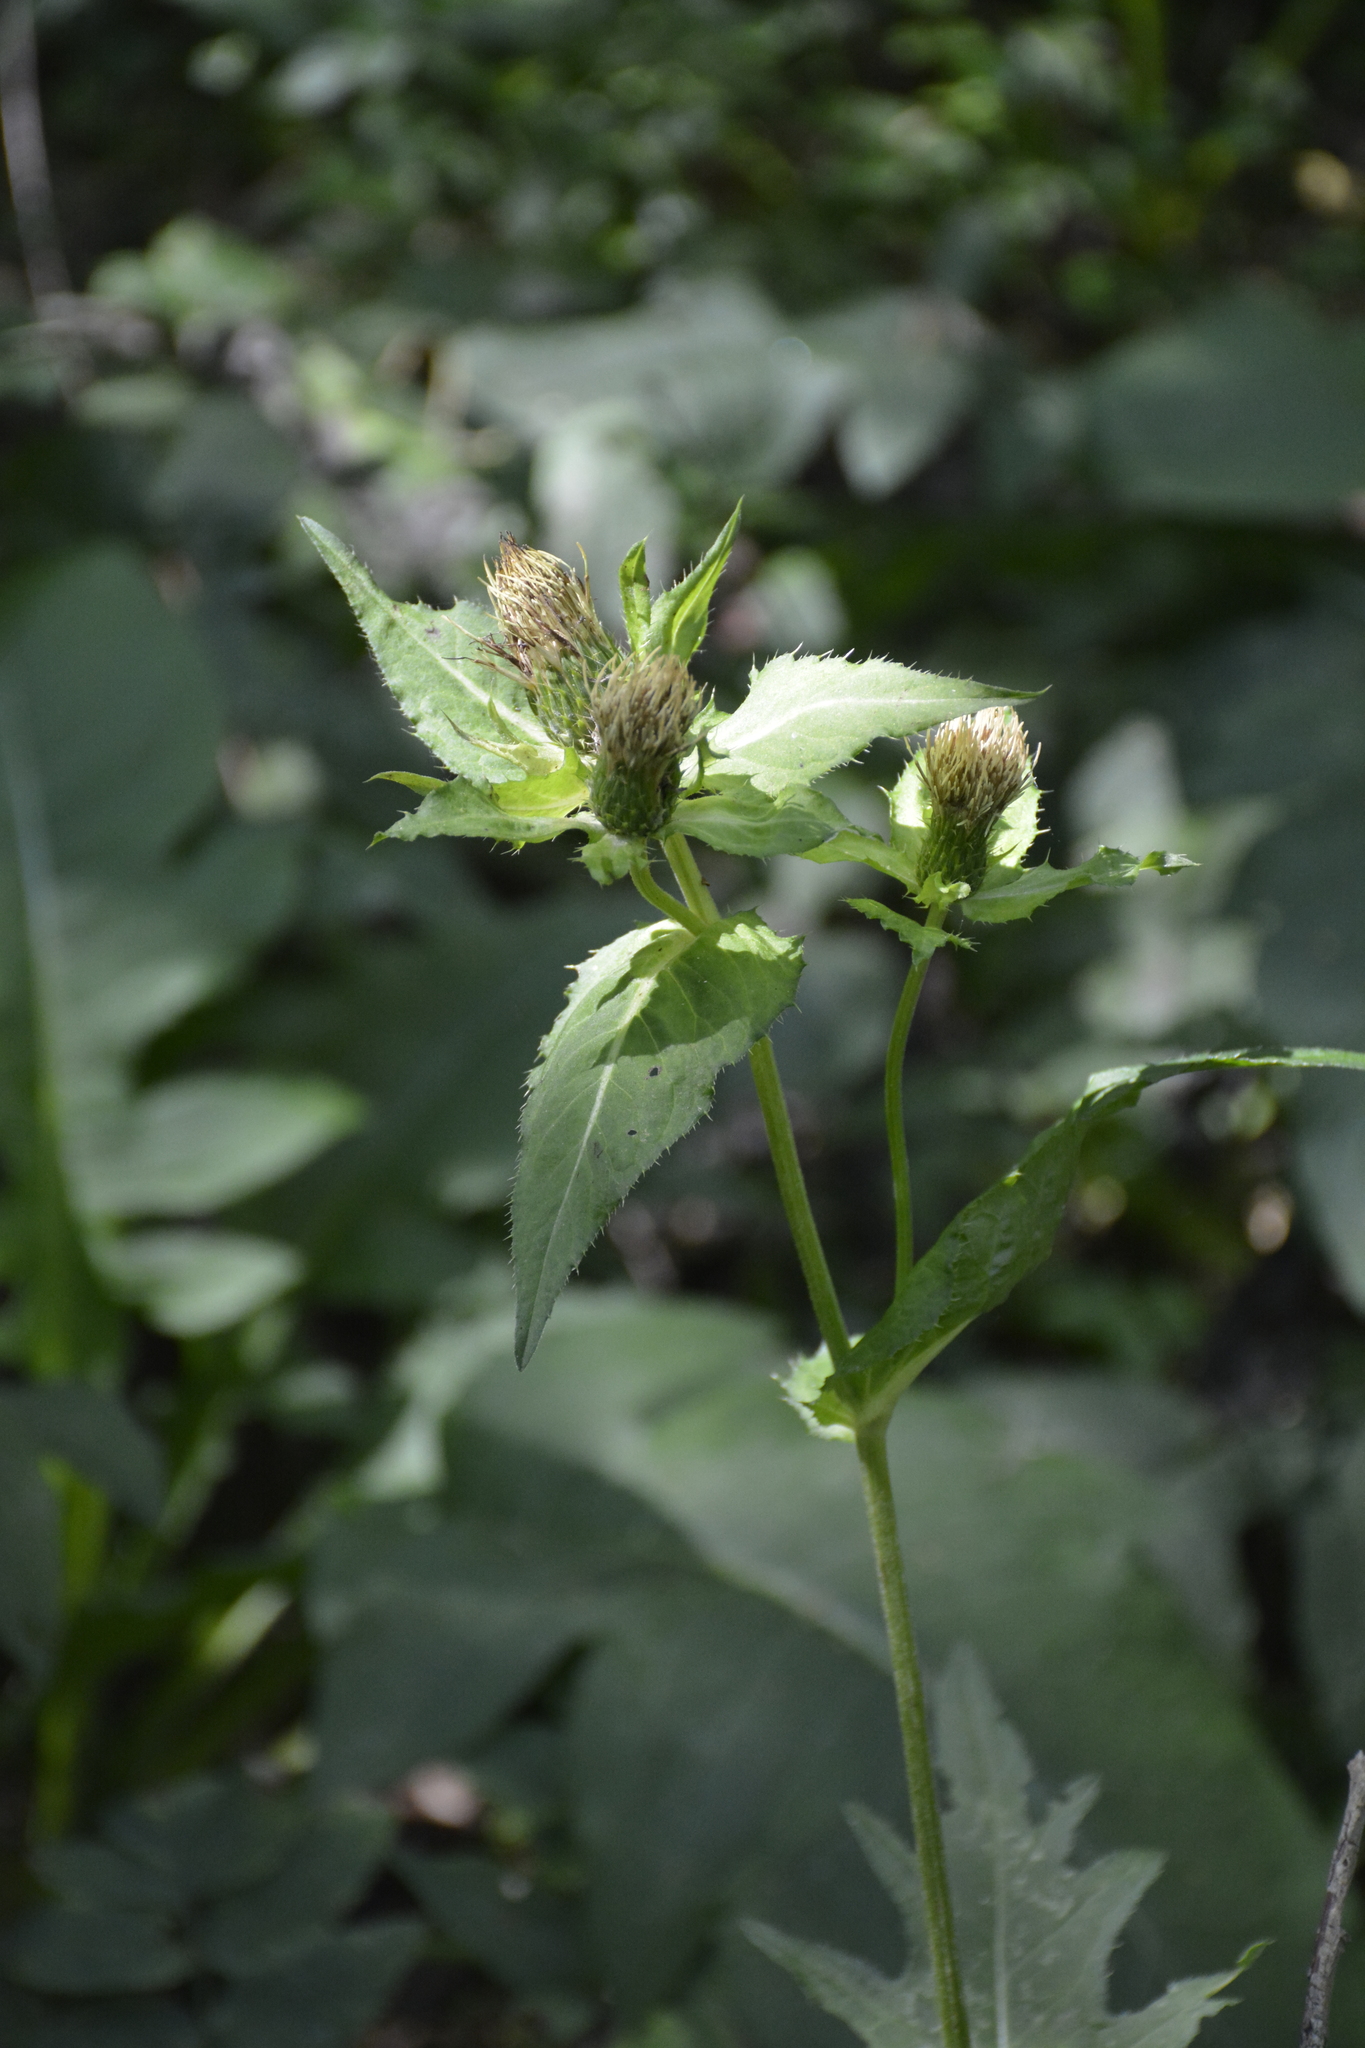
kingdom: Plantae
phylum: Tracheophyta
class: Magnoliopsida
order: Asterales
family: Asteraceae
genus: Cirsium
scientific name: Cirsium oleraceum
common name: Cabbage thistle
